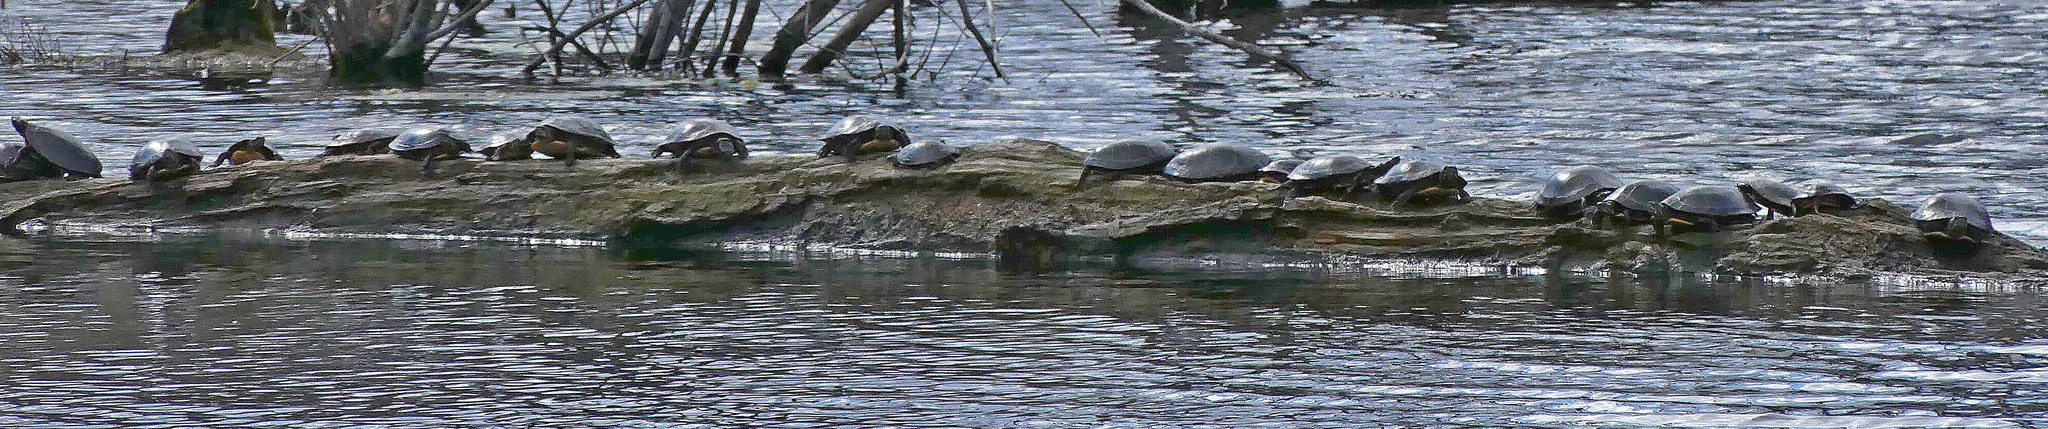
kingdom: Animalia
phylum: Chordata
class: Testudines
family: Emydidae
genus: Chrysemys
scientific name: Chrysemys picta
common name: Painted turtle
